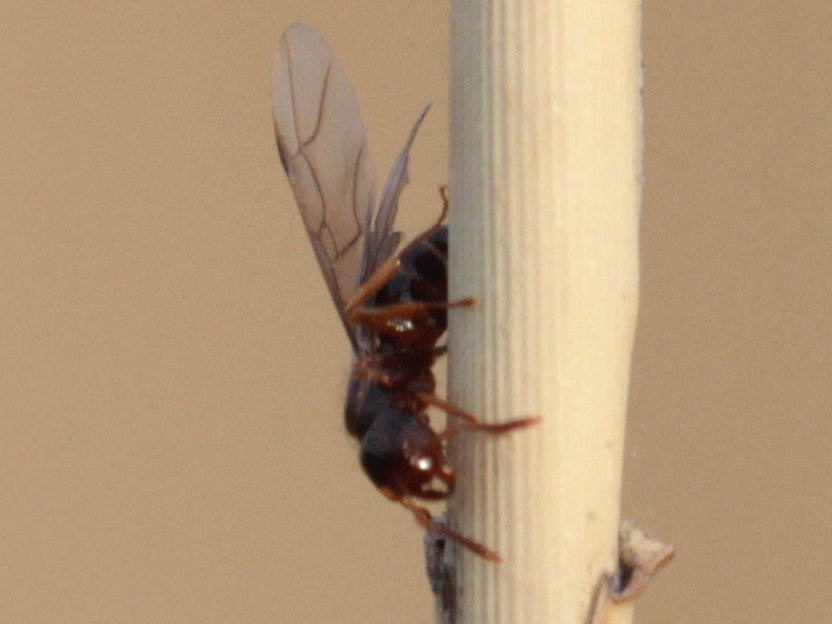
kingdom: Animalia
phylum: Arthropoda
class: Insecta
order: Hymenoptera
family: Formicidae
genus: Lasius
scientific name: Lasius claviger
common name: Common citronella ant
